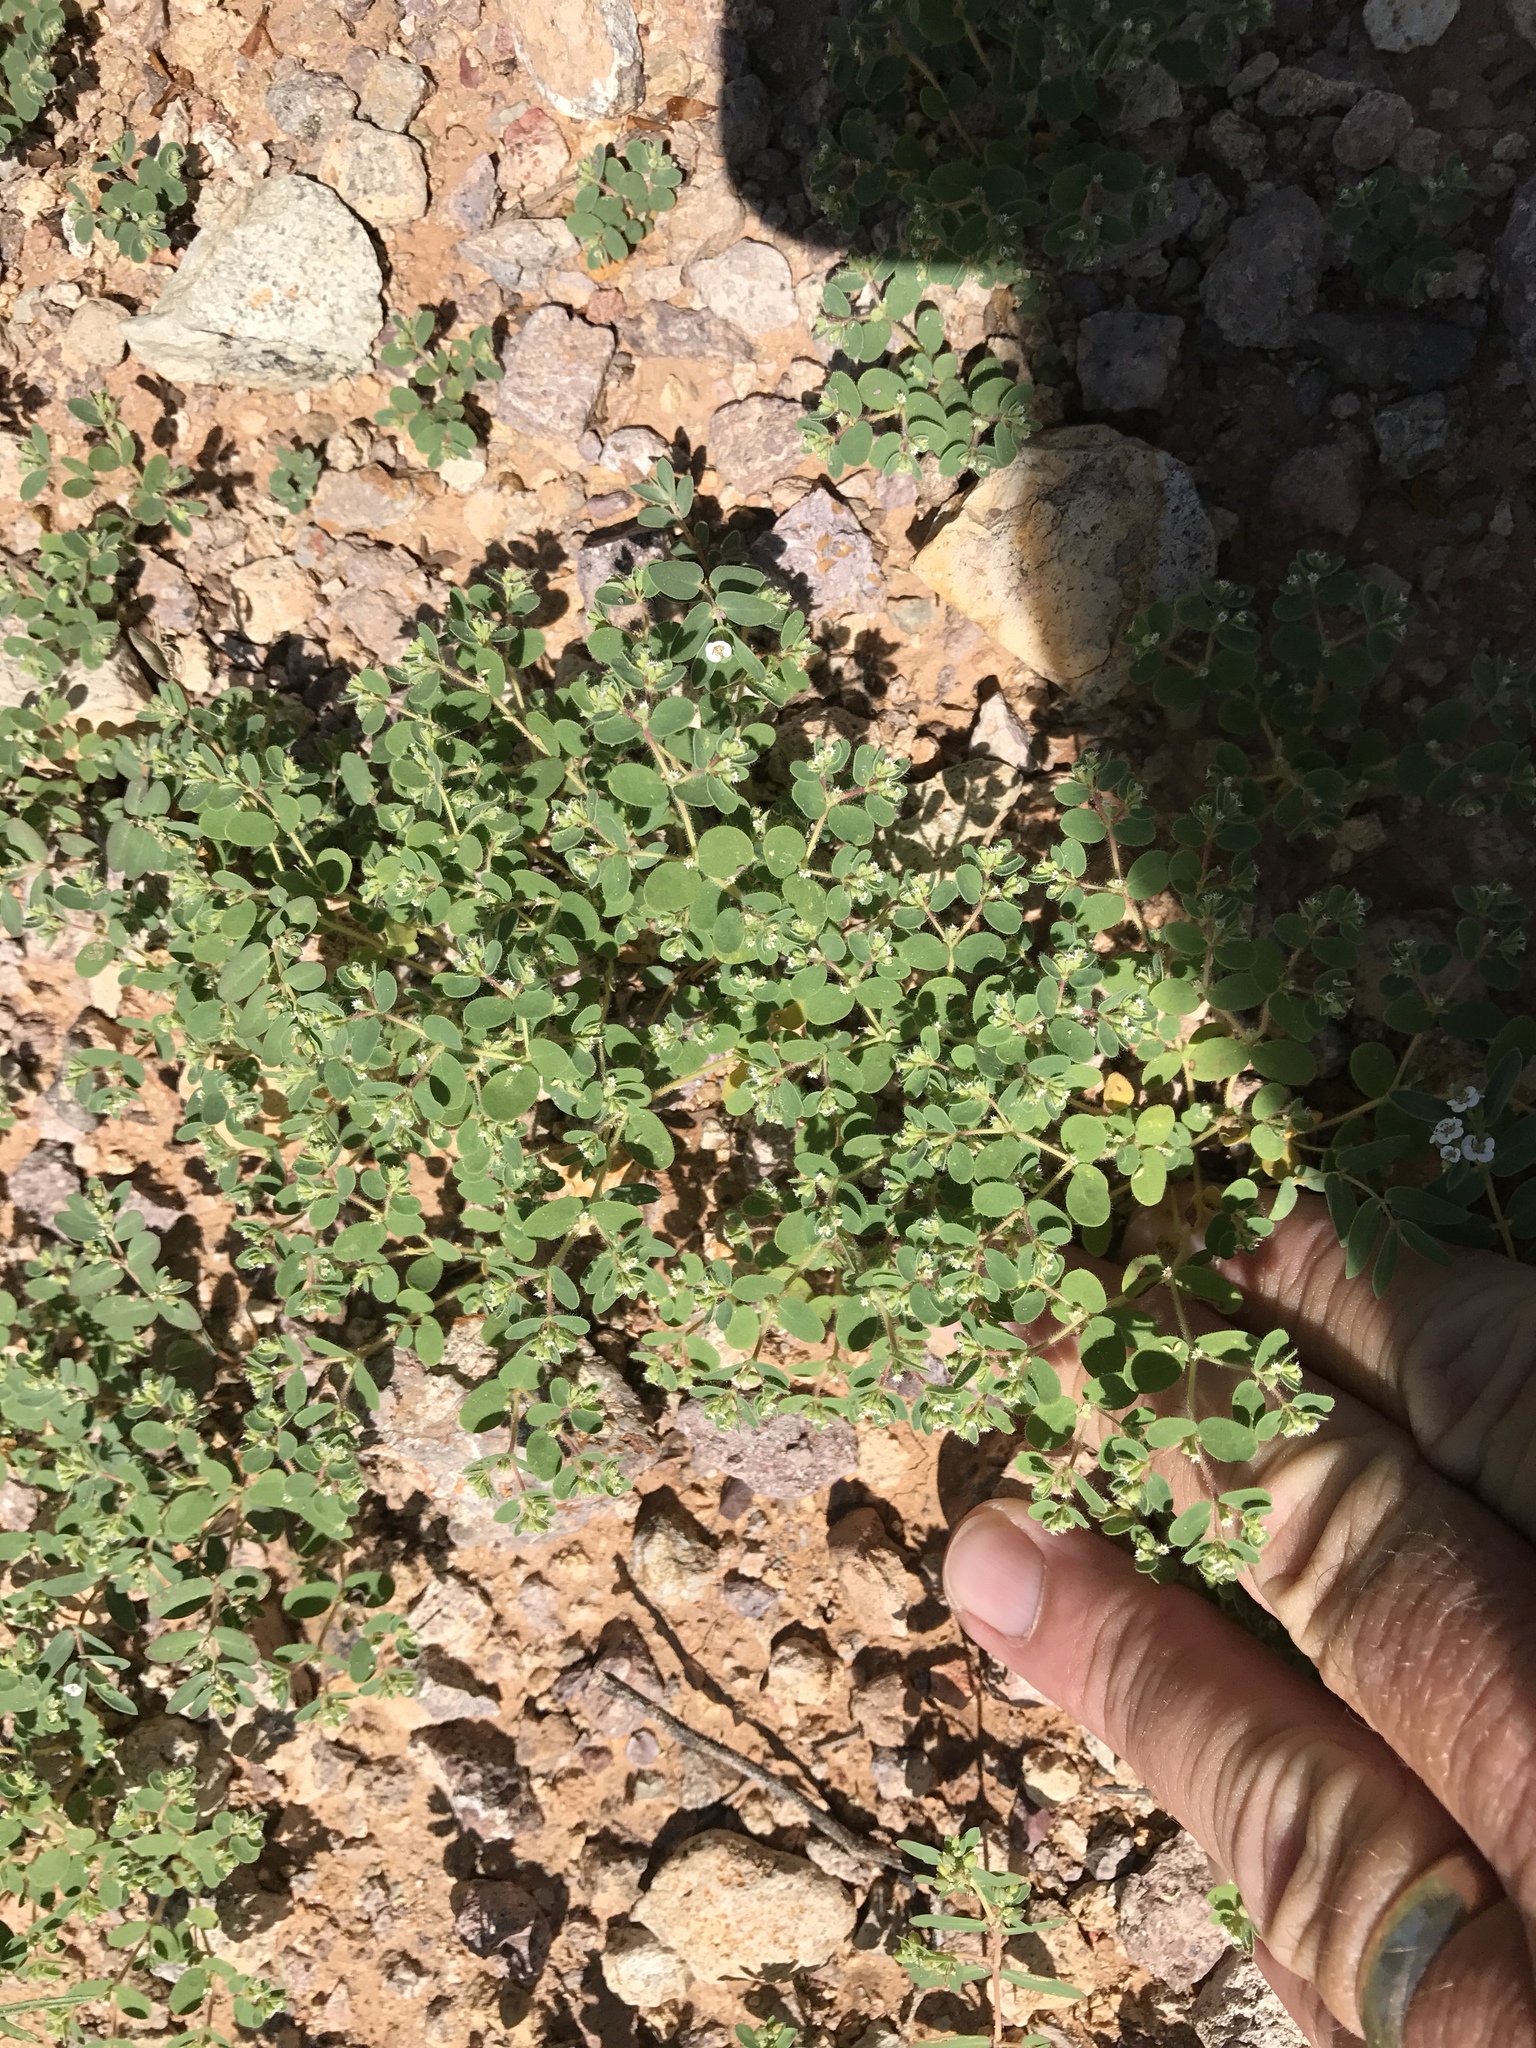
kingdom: Plantae
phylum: Tracheophyta
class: Magnoliopsida
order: Malpighiales
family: Euphorbiaceae
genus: Euphorbia
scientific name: Euphorbia setiloba
